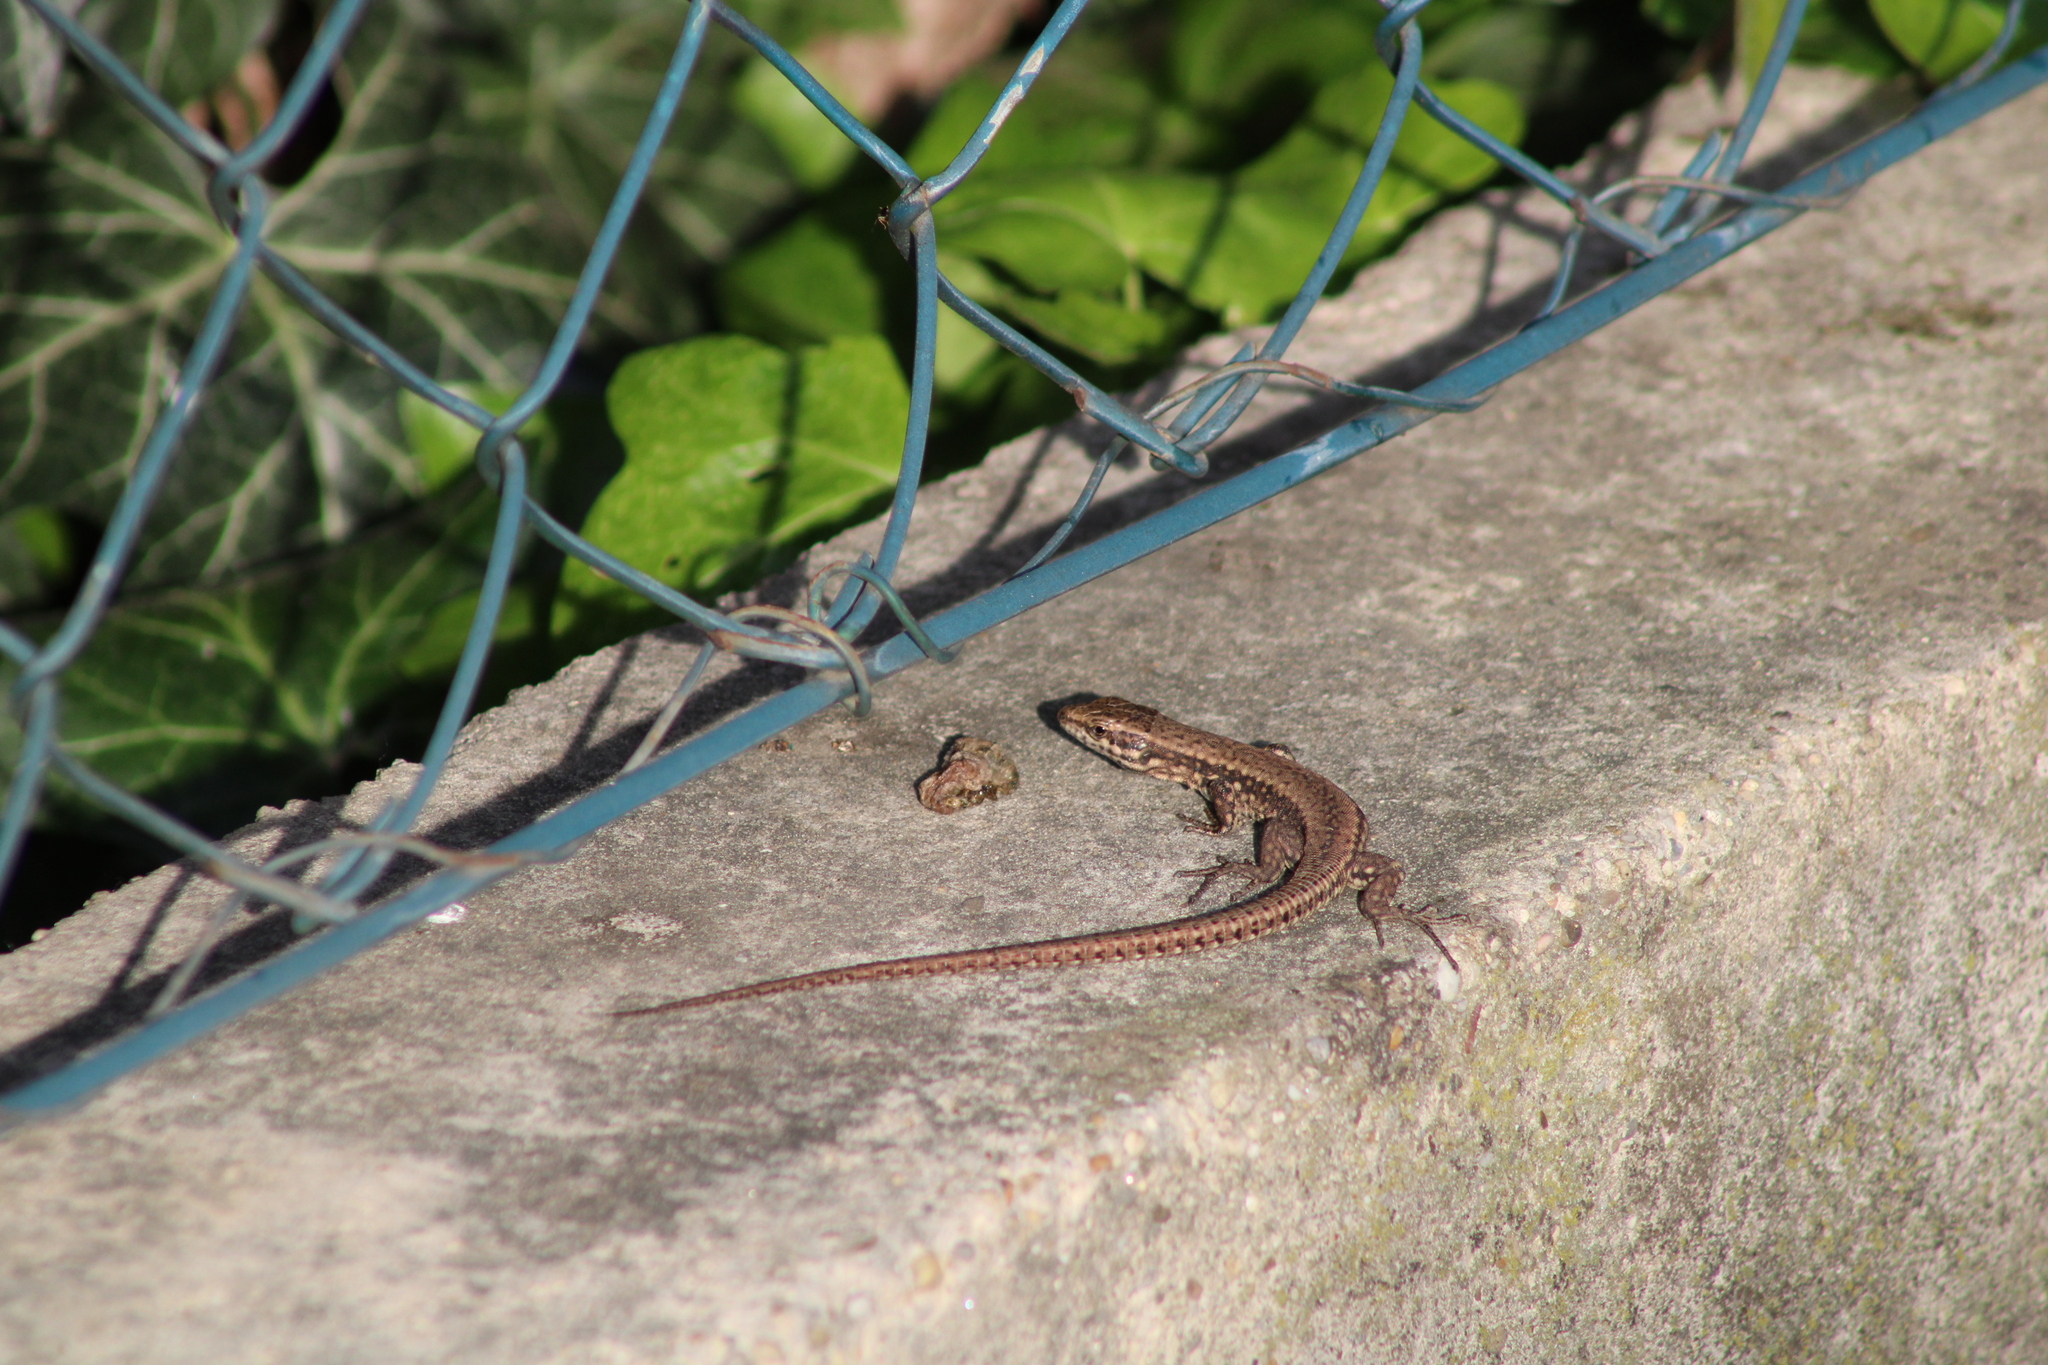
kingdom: Animalia
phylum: Chordata
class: Squamata
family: Lacertidae
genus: Podarcis
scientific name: Podarcis muralis
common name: Common wall lizard
